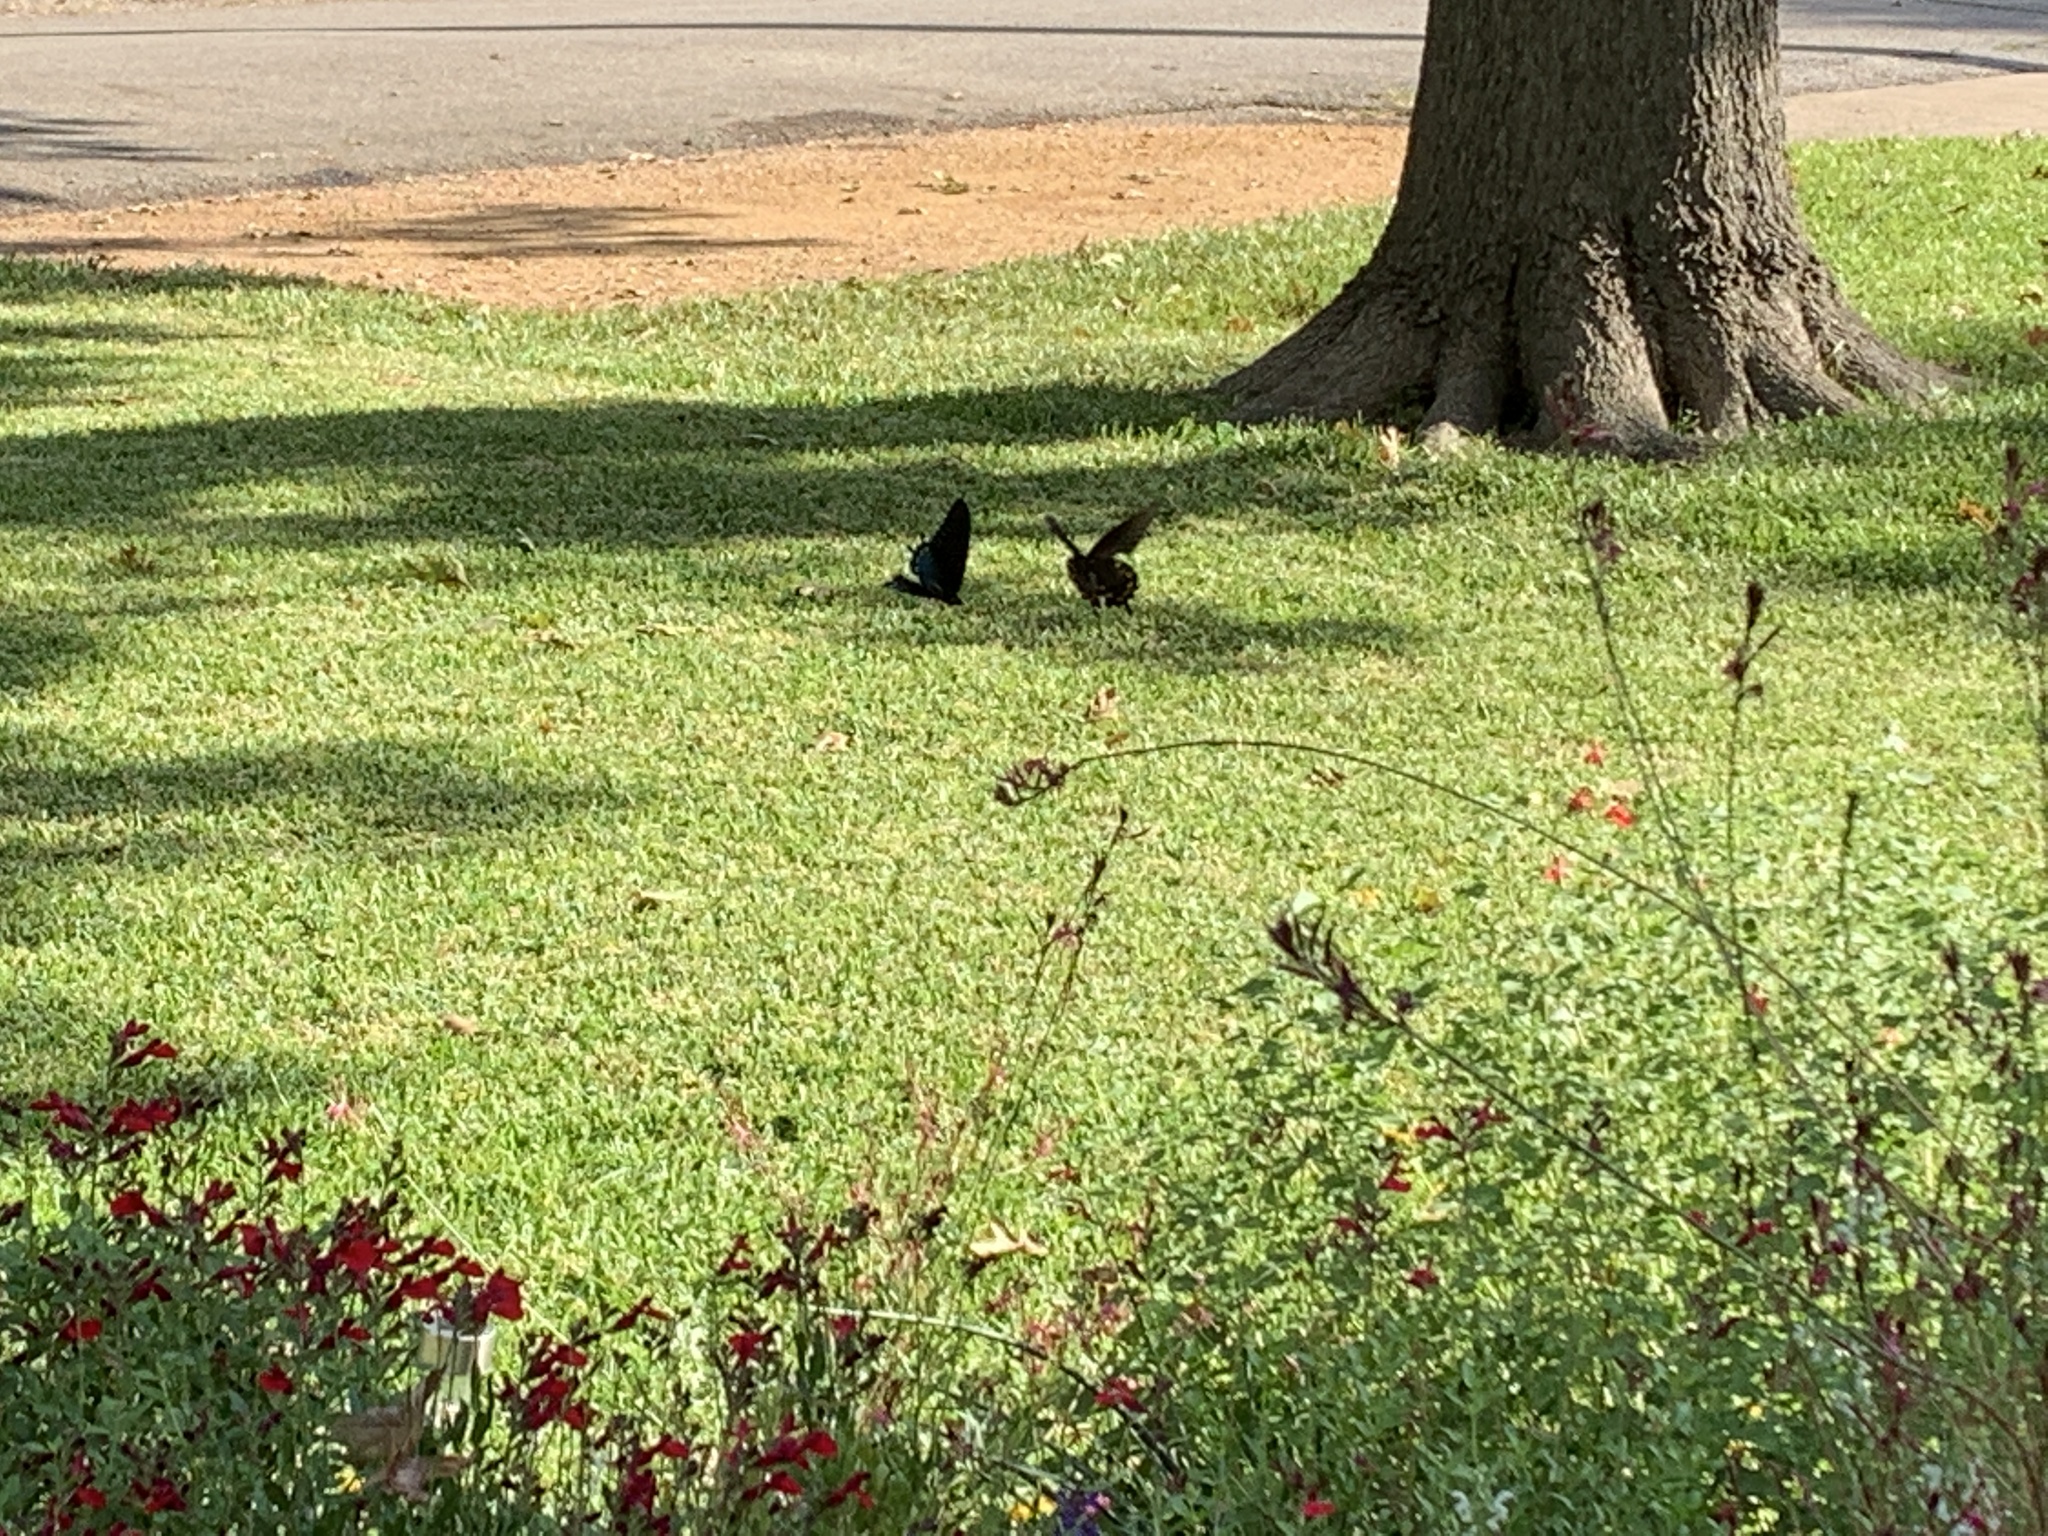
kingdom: Animalia
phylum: Arthropoda
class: Insecta
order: Lepidoptera
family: Papilionidae
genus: Battus
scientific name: Battus philenor
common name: Pipevine swallowtail
